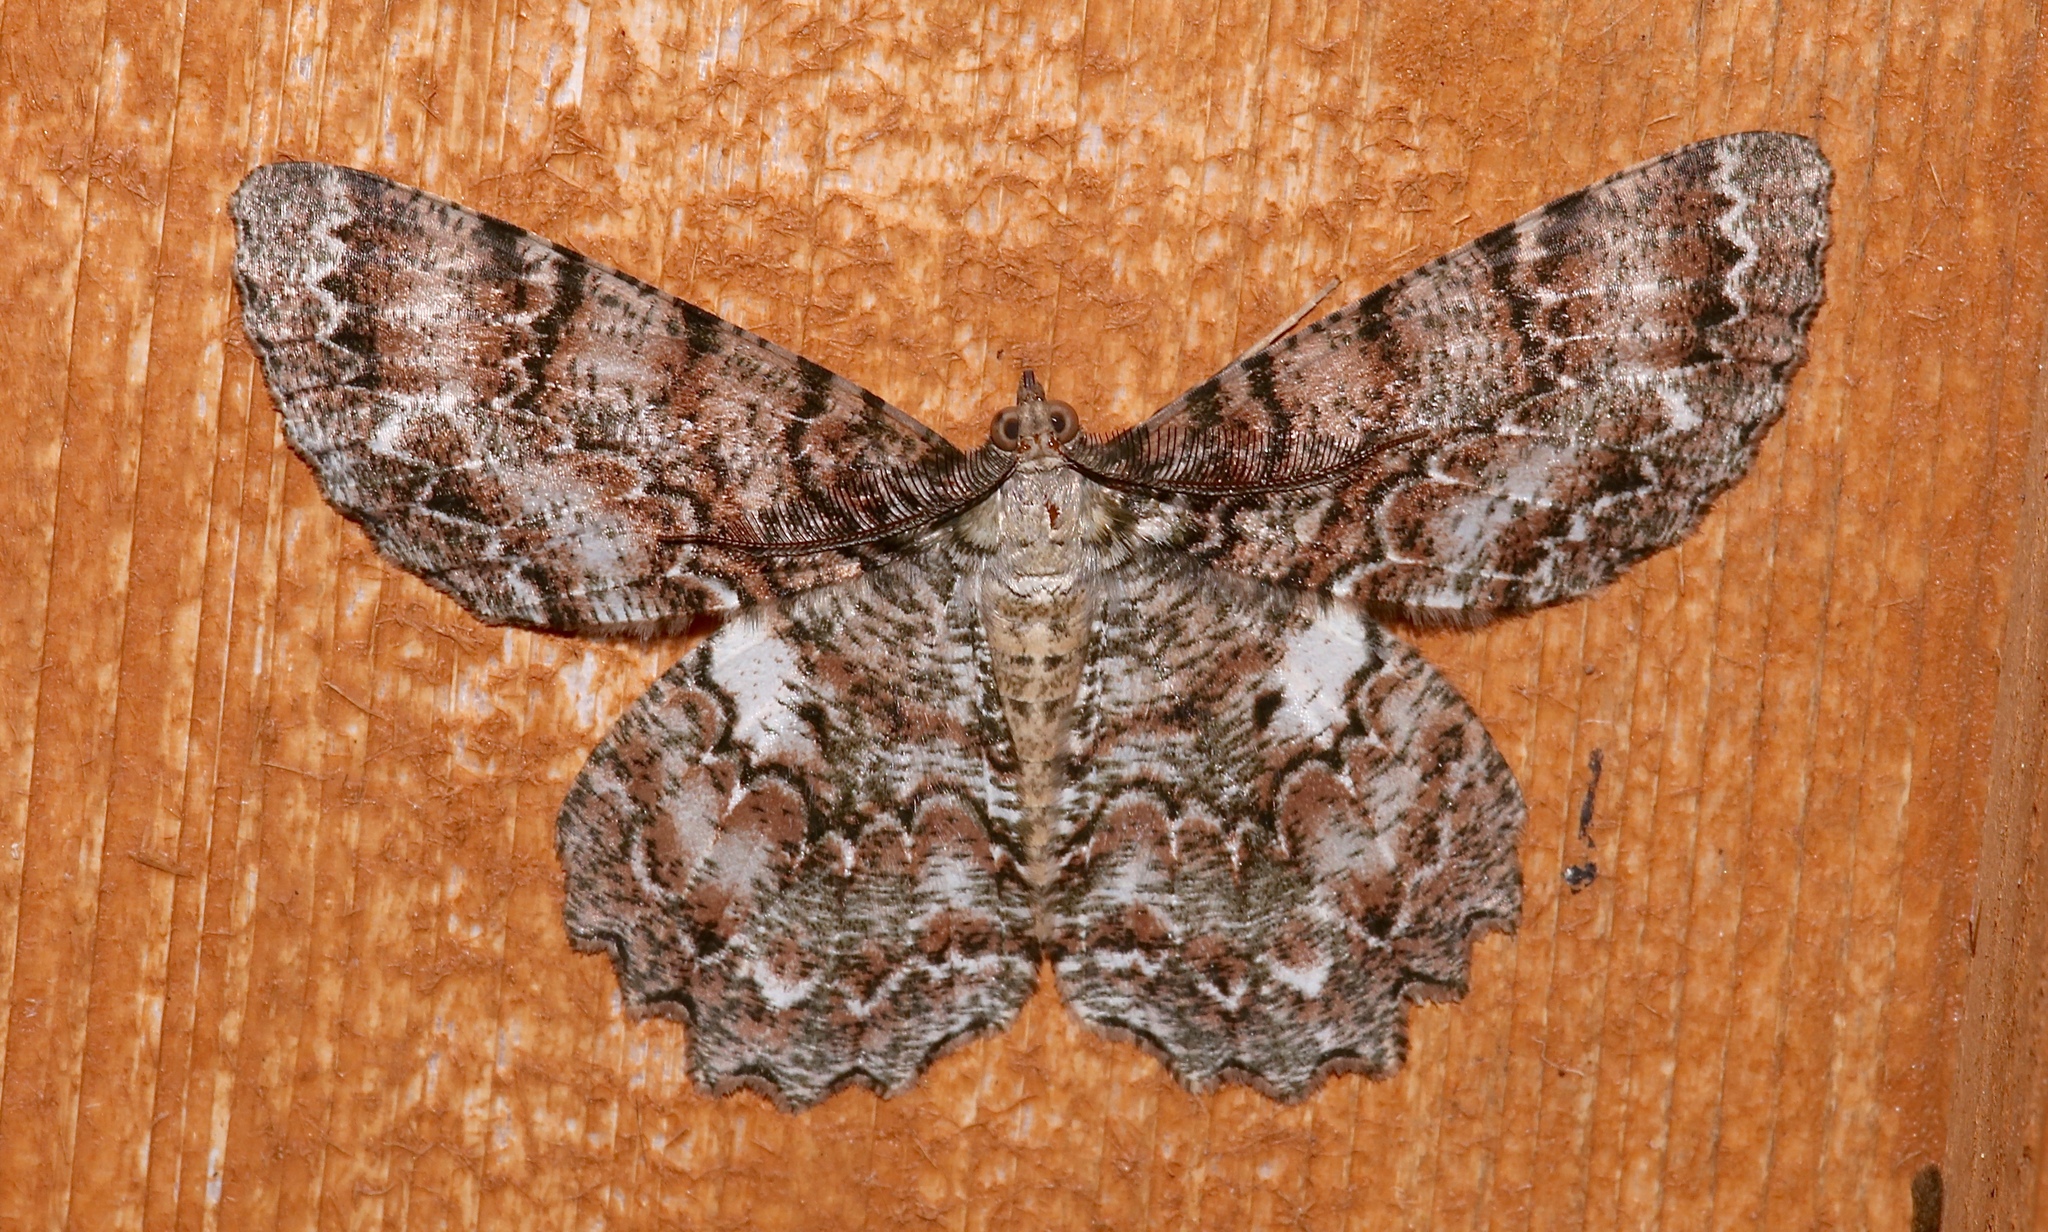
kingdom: Animalia
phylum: Arthropoda
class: Insecta
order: Lepidoptera
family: Geometridae
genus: Epimecis
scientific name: Epimecis hortaria
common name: Tulip-tree beauty
